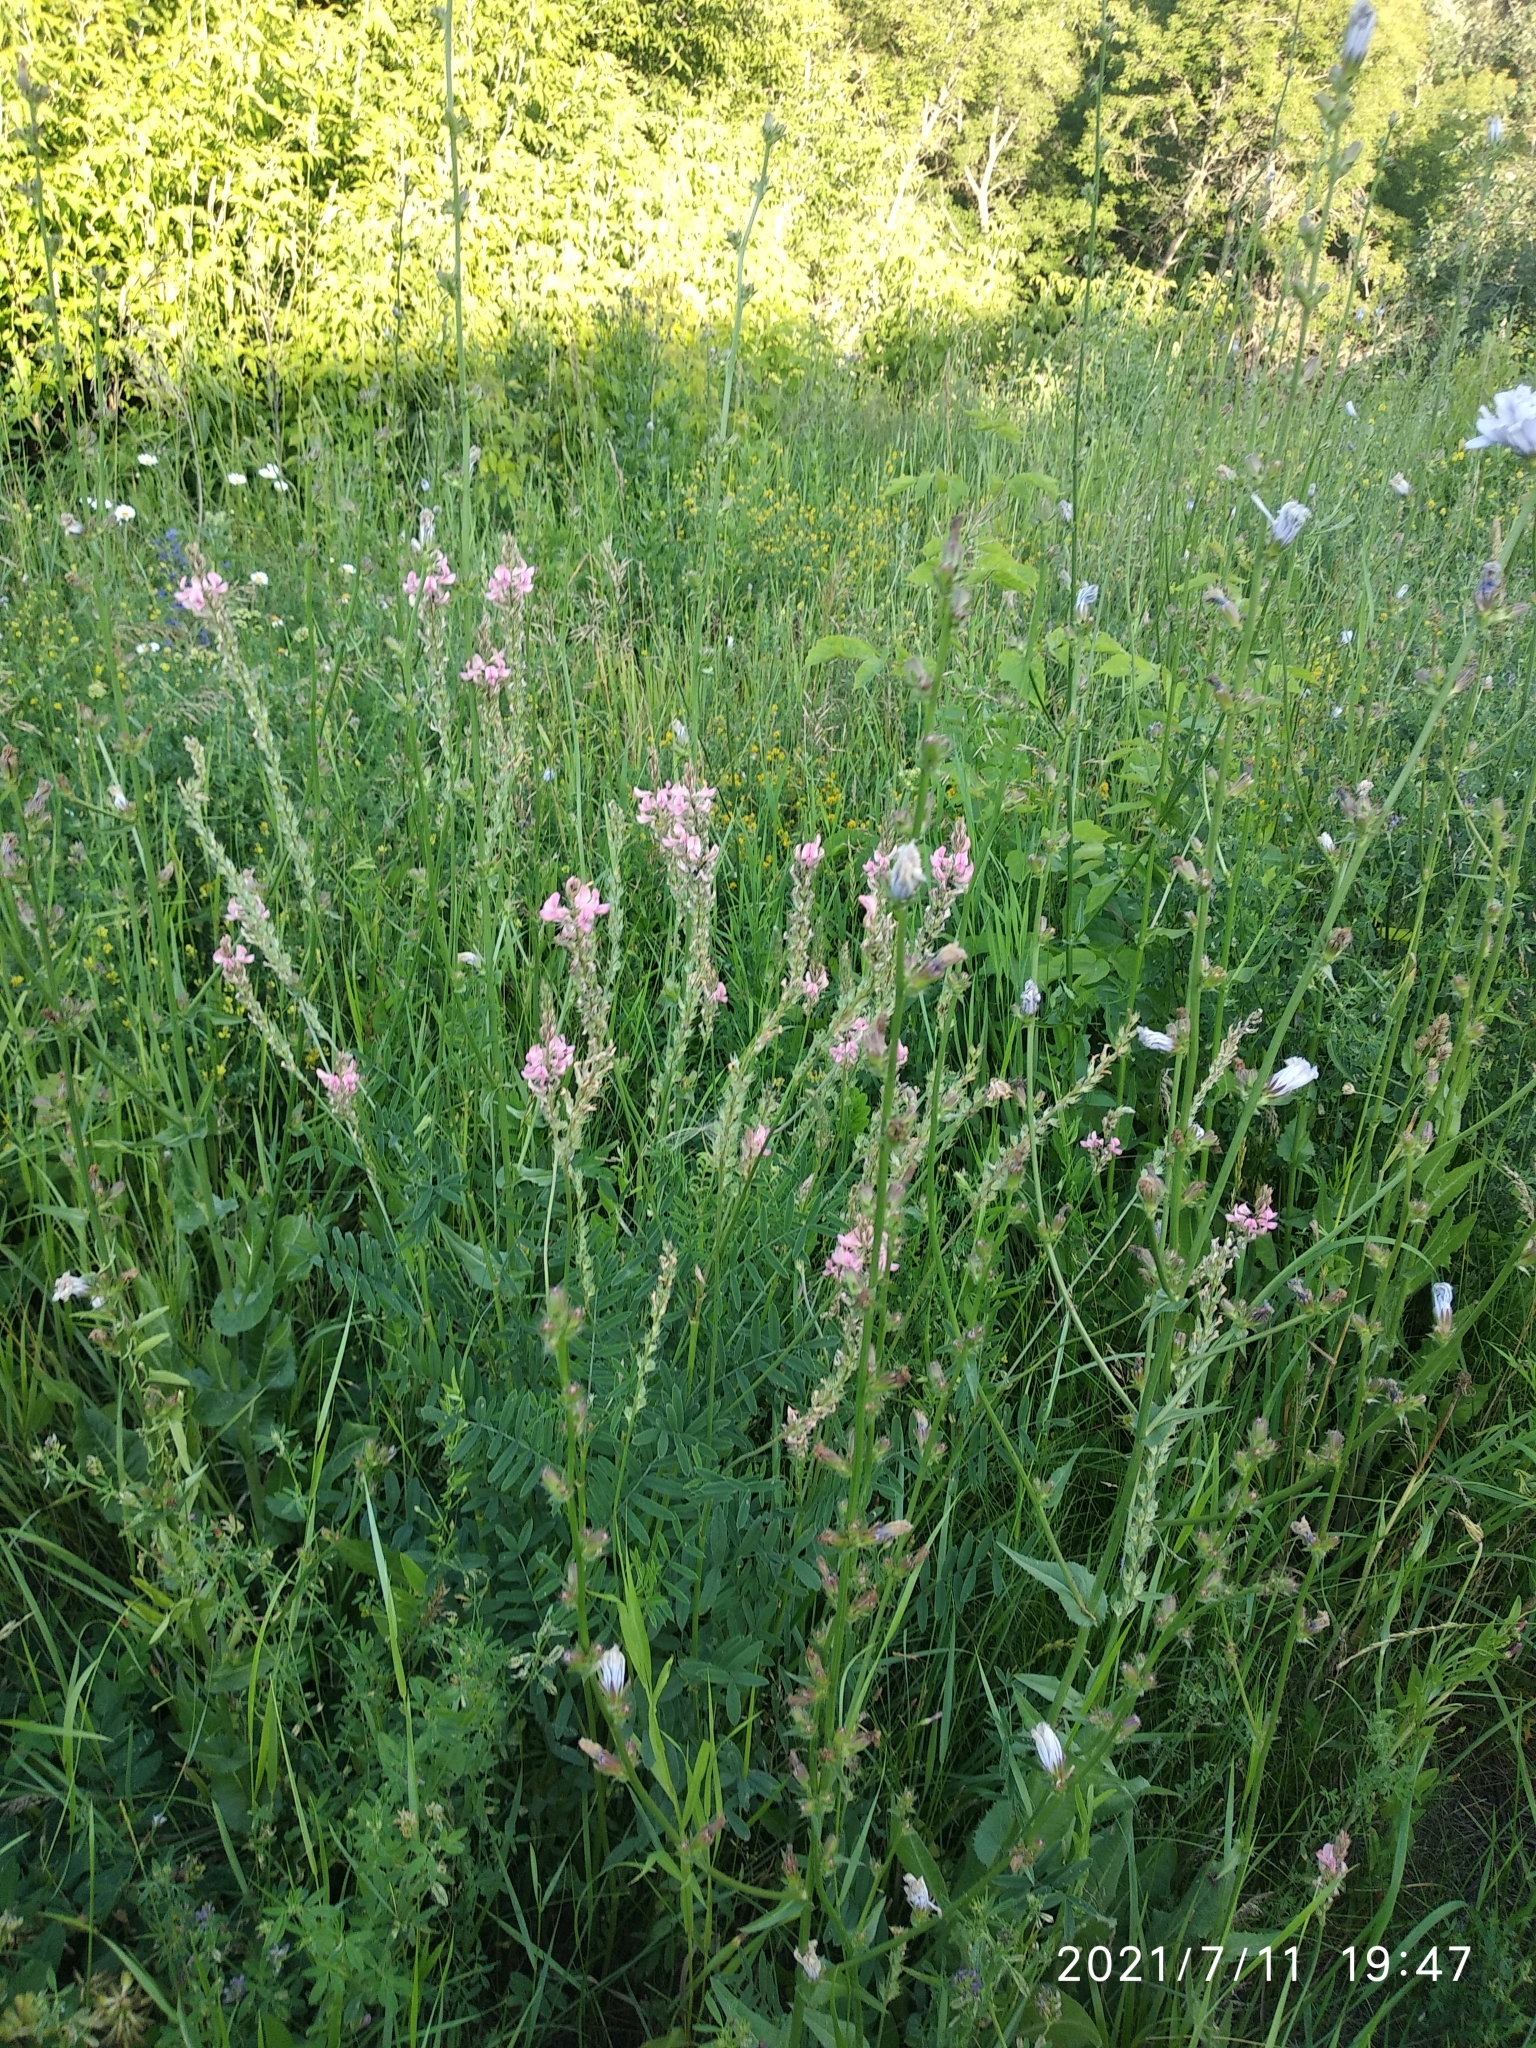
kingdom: Plantae
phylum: Tracheophyta
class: Magnoliopsida
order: Fabales
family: Fabaceae
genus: Onobrychis
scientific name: Onobrychis viciifolia
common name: Sainfoin
